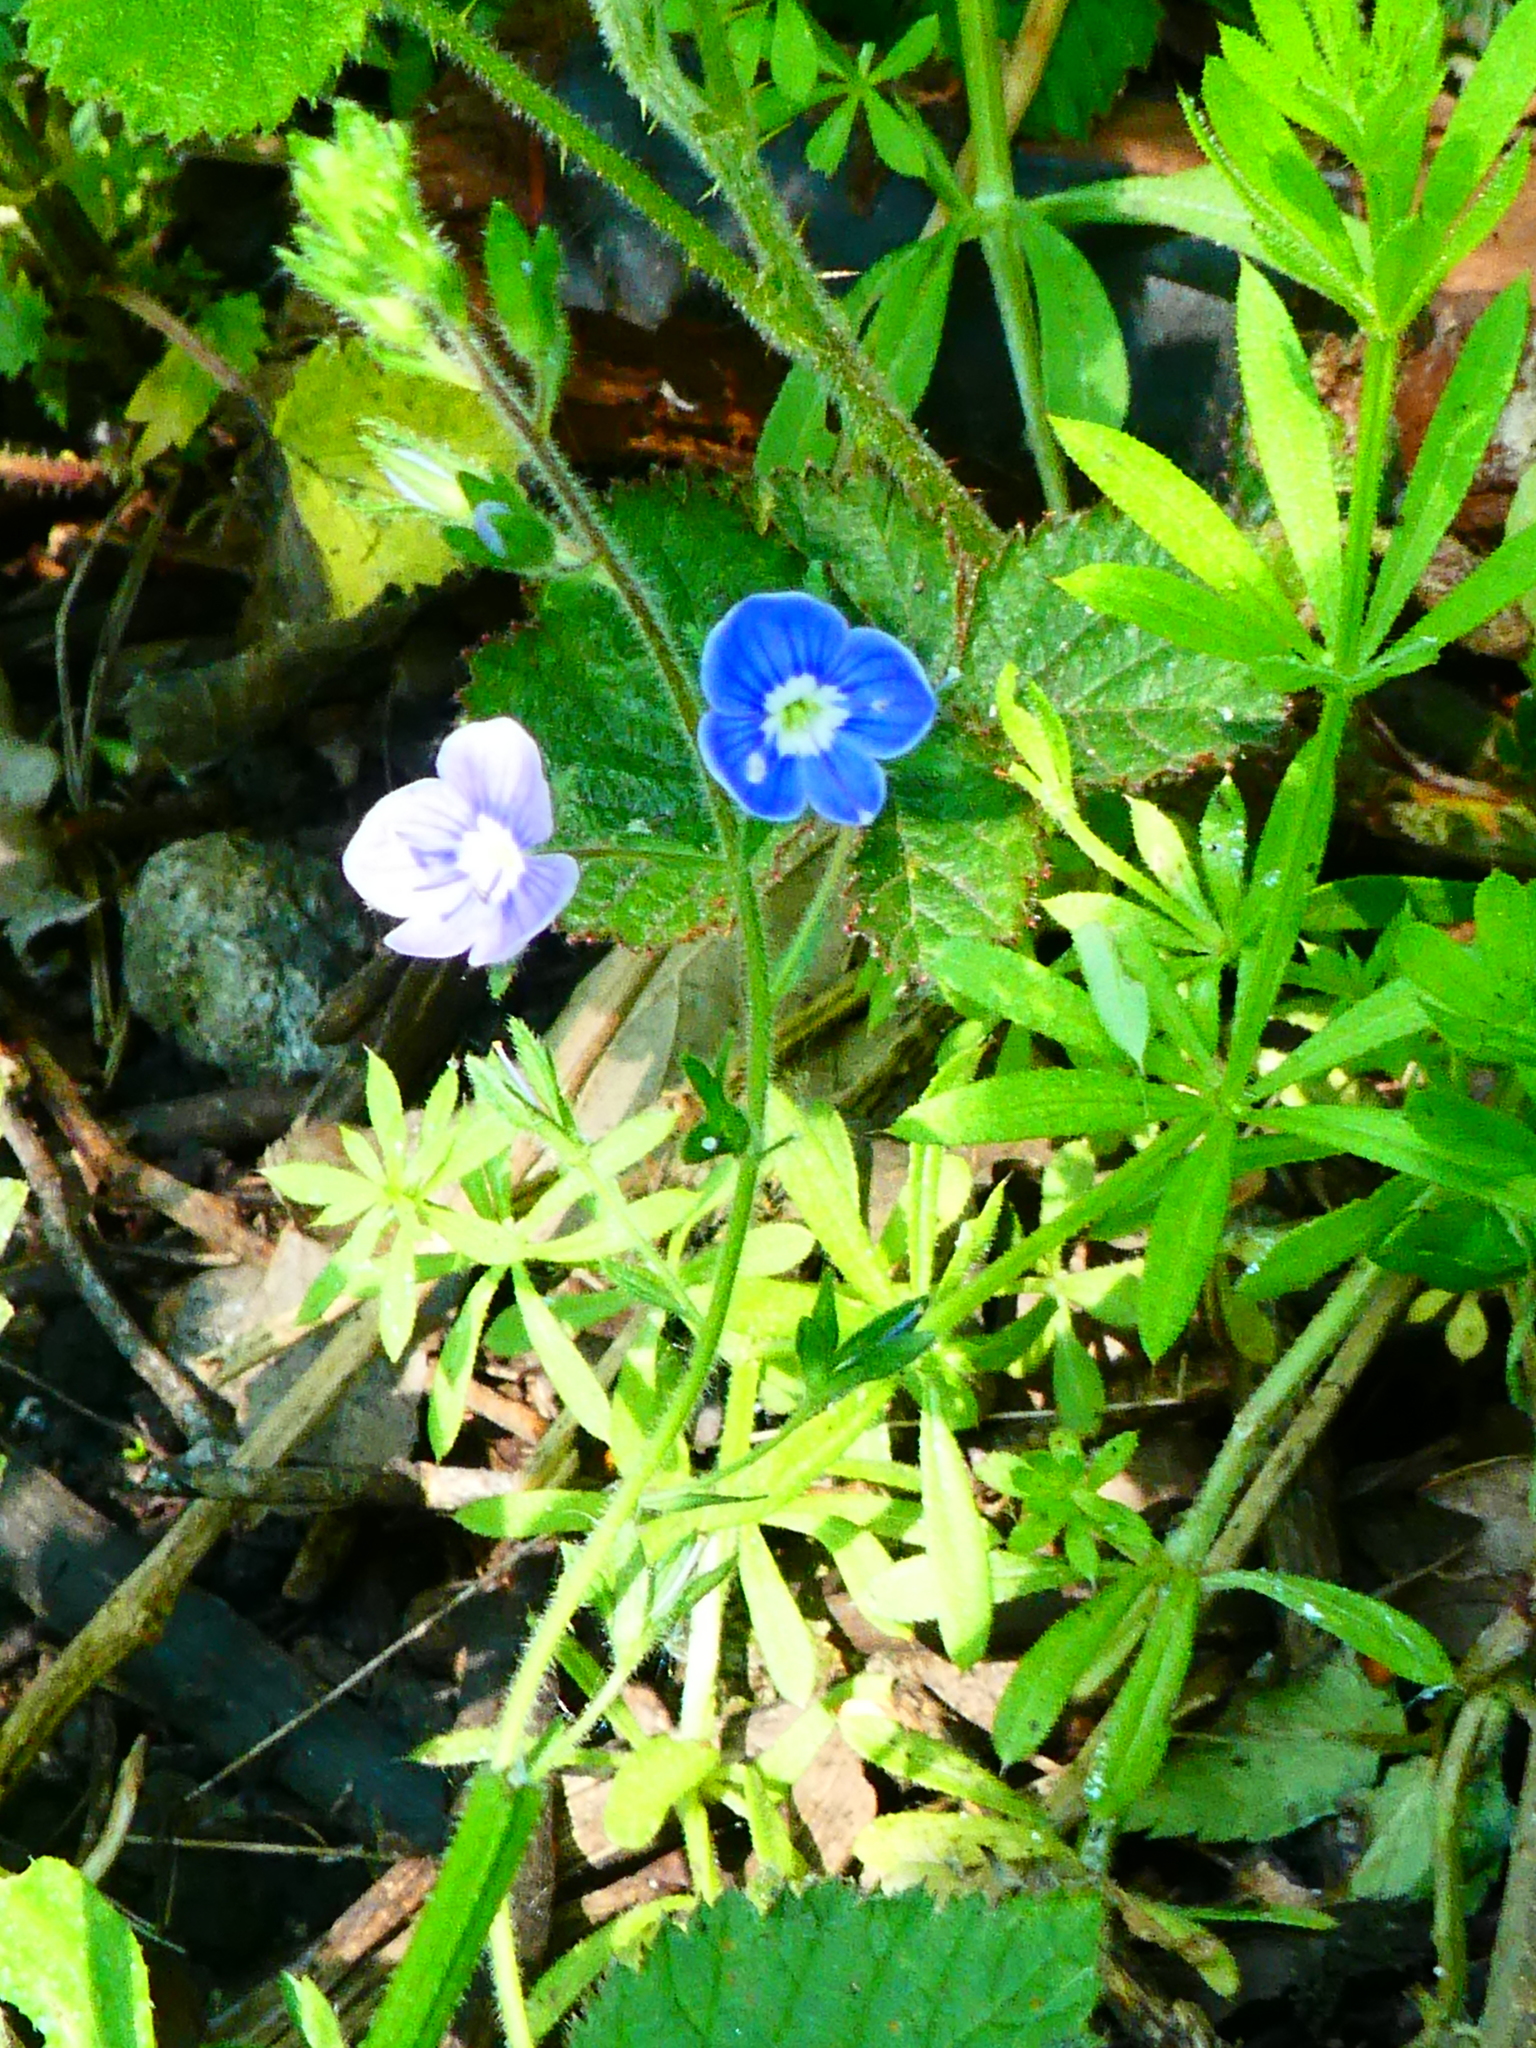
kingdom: Plantae
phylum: Tracheophyta
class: Magnoliopsida
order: Lamiales
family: Plantaginaceae
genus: Veronica
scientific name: Veronica chamaedrys
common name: Germander speedwell
